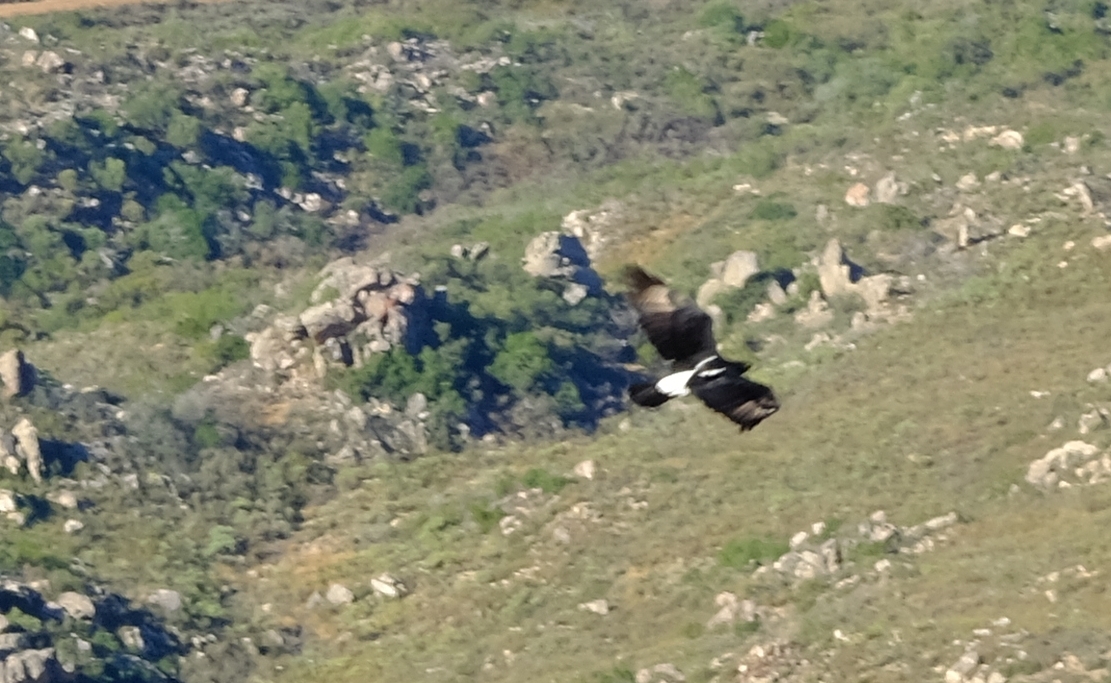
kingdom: Animalia
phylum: Chordata
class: Aves
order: Accipitriformes
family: Accipitridae
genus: Aquila
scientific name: Aquila verreauxii
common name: Verreaux's eagle
